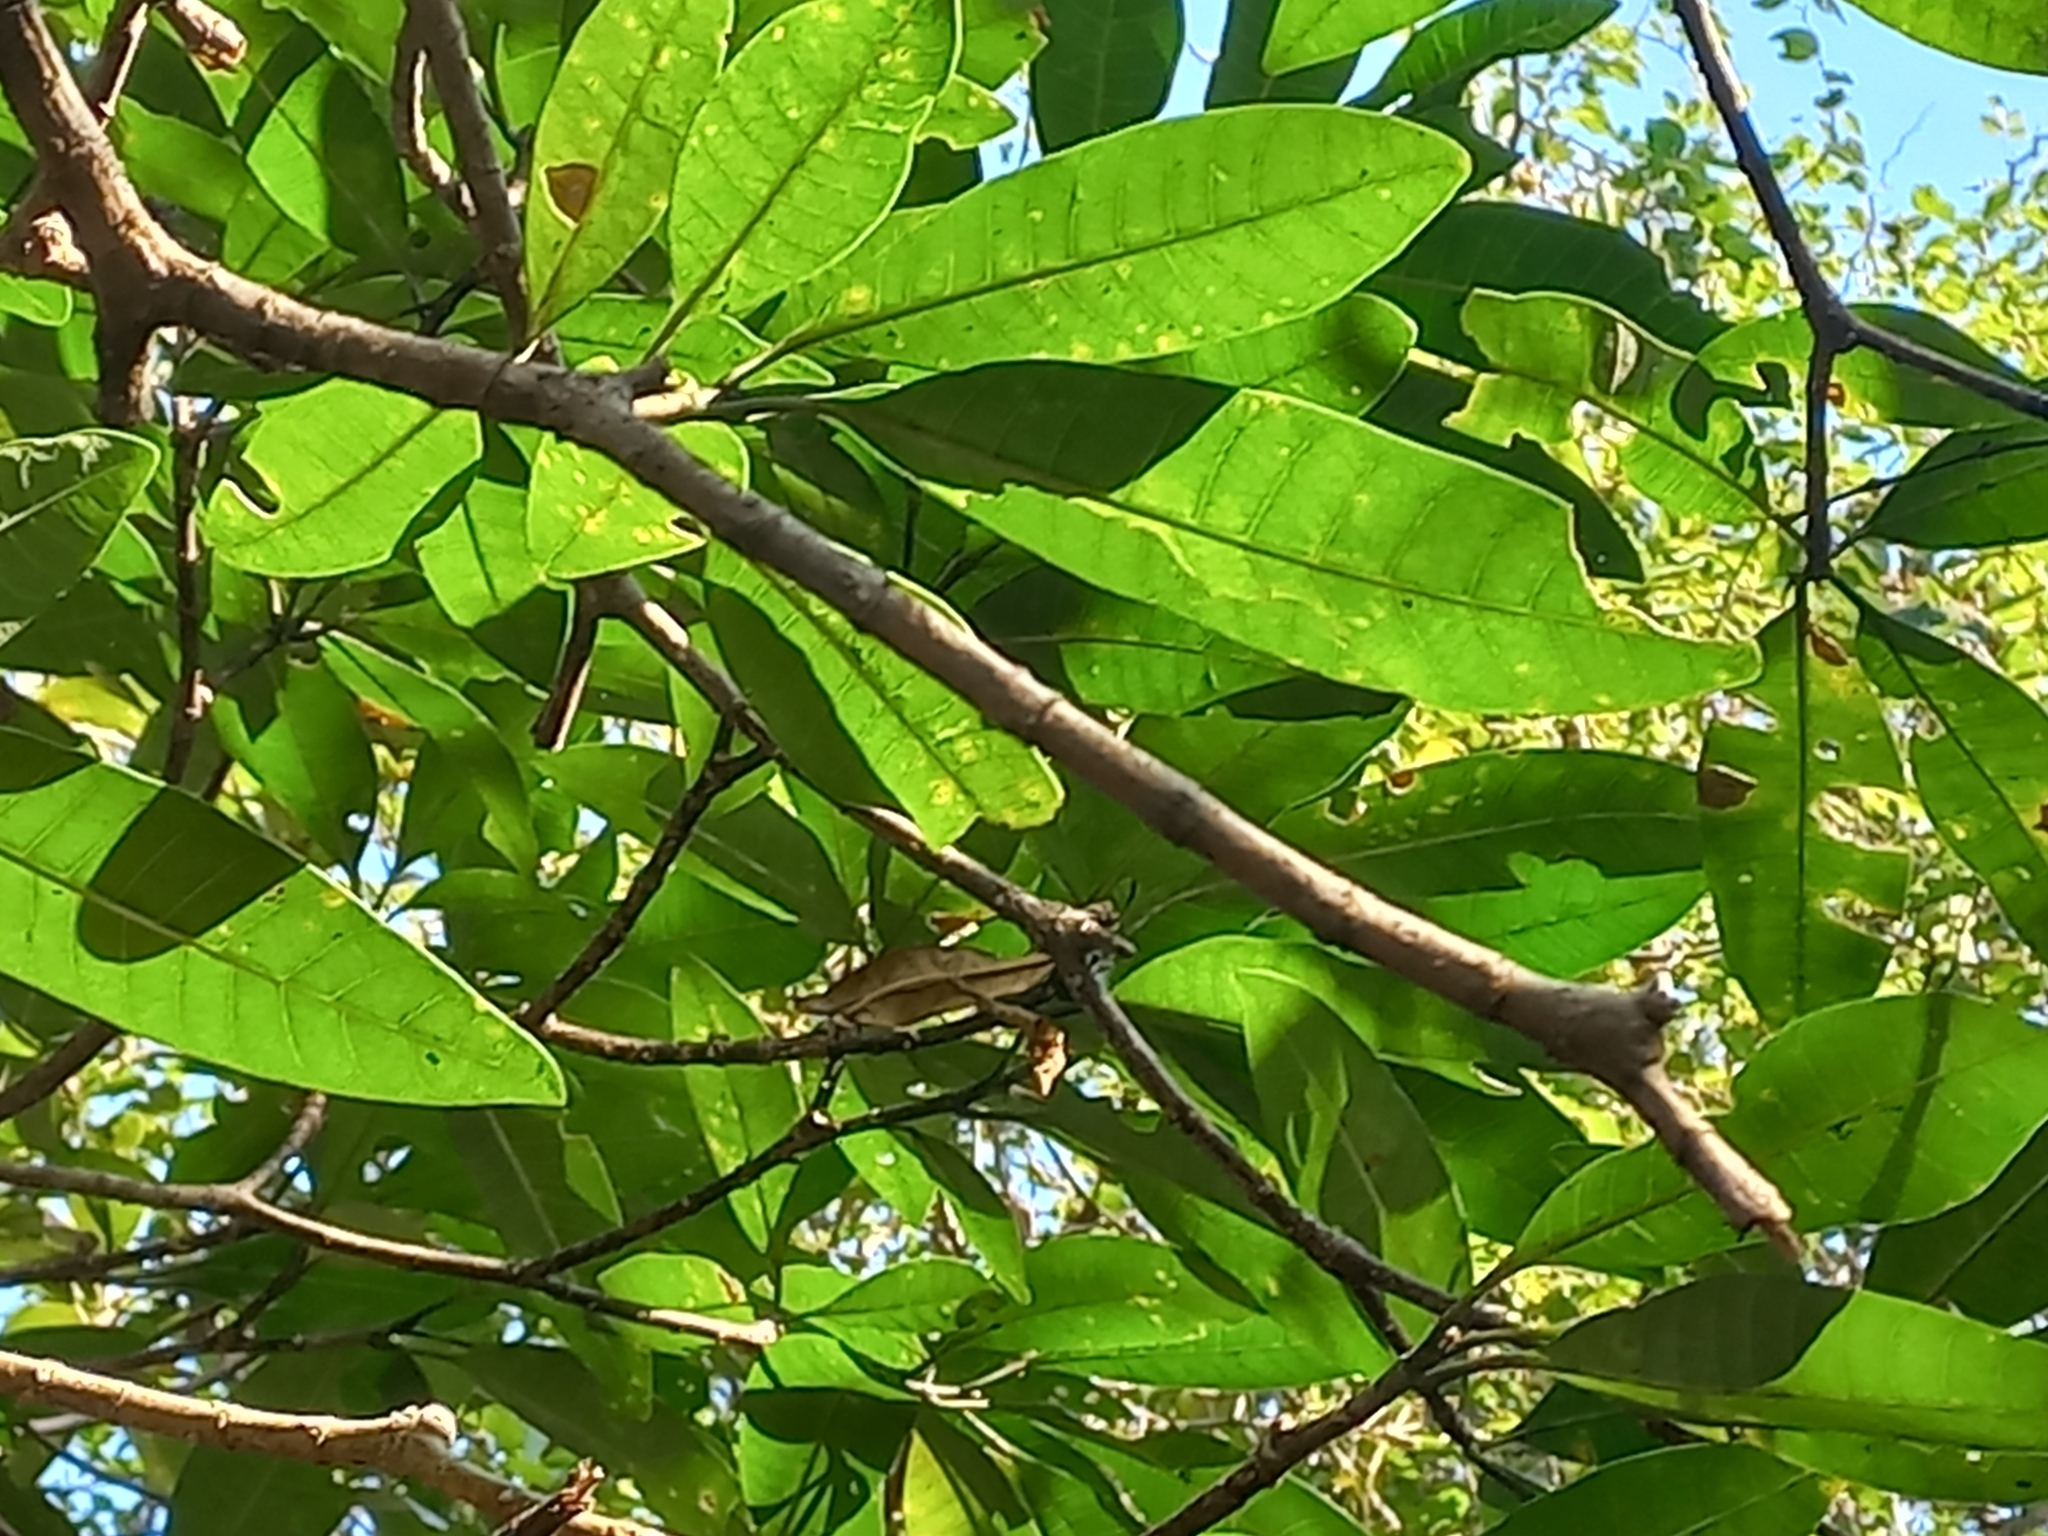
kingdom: Plantae
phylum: Tracheophyta
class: Magnoliopsida
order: Gentianales
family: Apocynaceae
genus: Tabernaemontana
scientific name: Tabernaemontana elegans
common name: Toadtree
